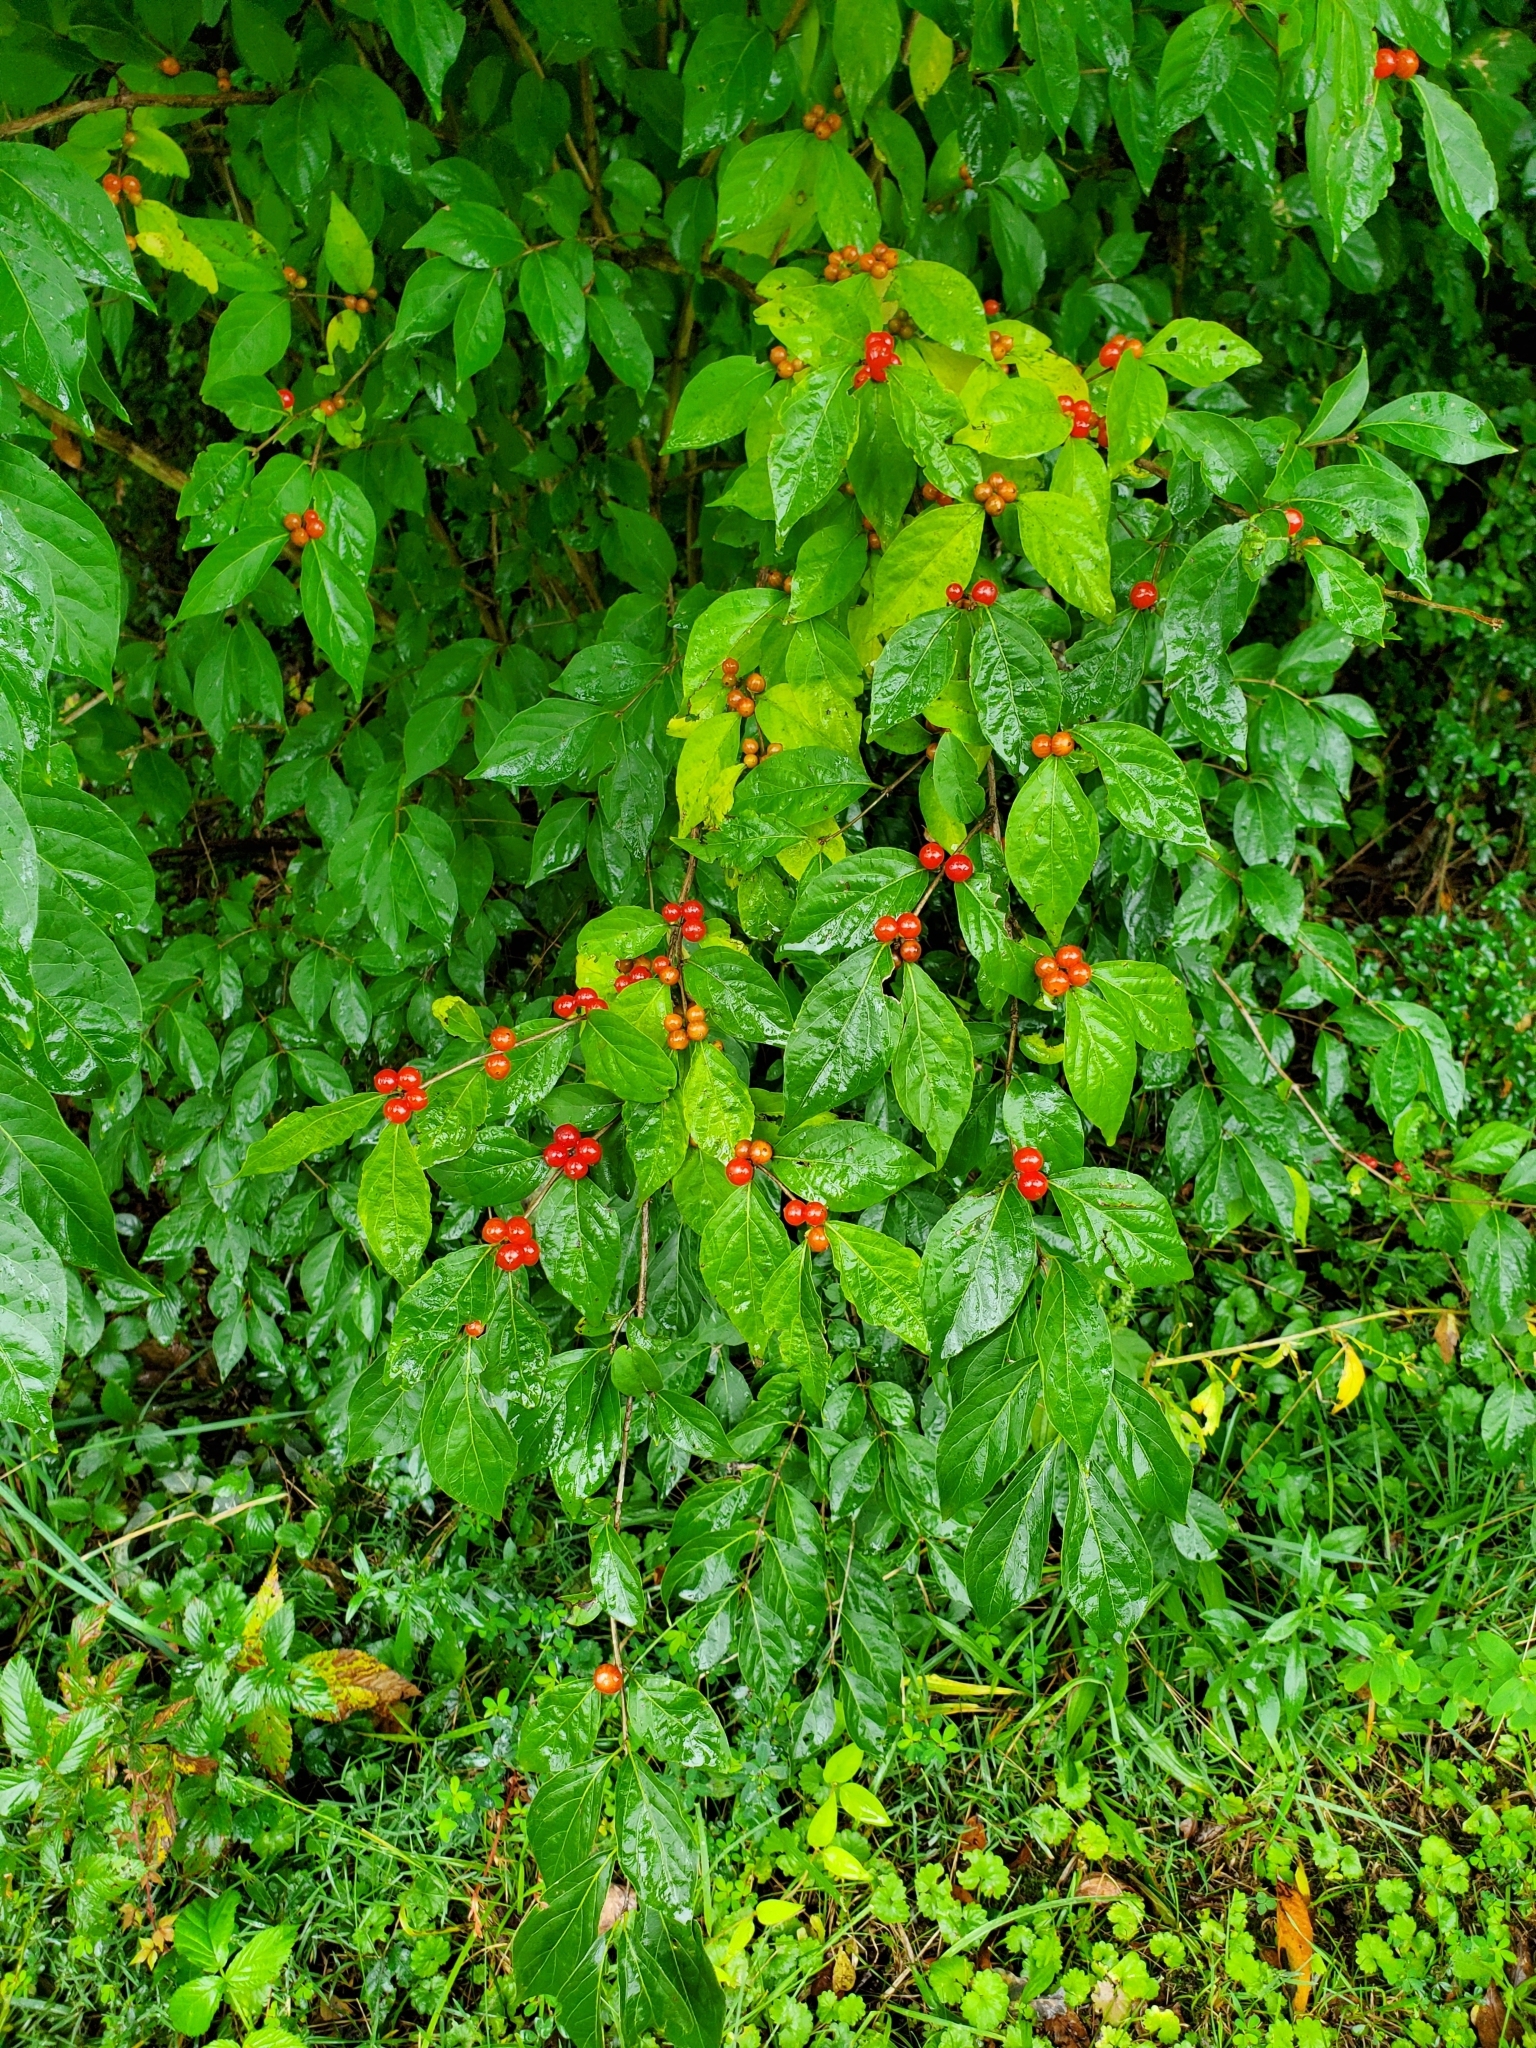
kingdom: Plantae
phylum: Tracheophyta
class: Magnoliopsida
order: Dipsacales
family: Caprifoliaceae
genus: Lonicera
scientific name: Lonicera maackii
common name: Amur honeysuckle
